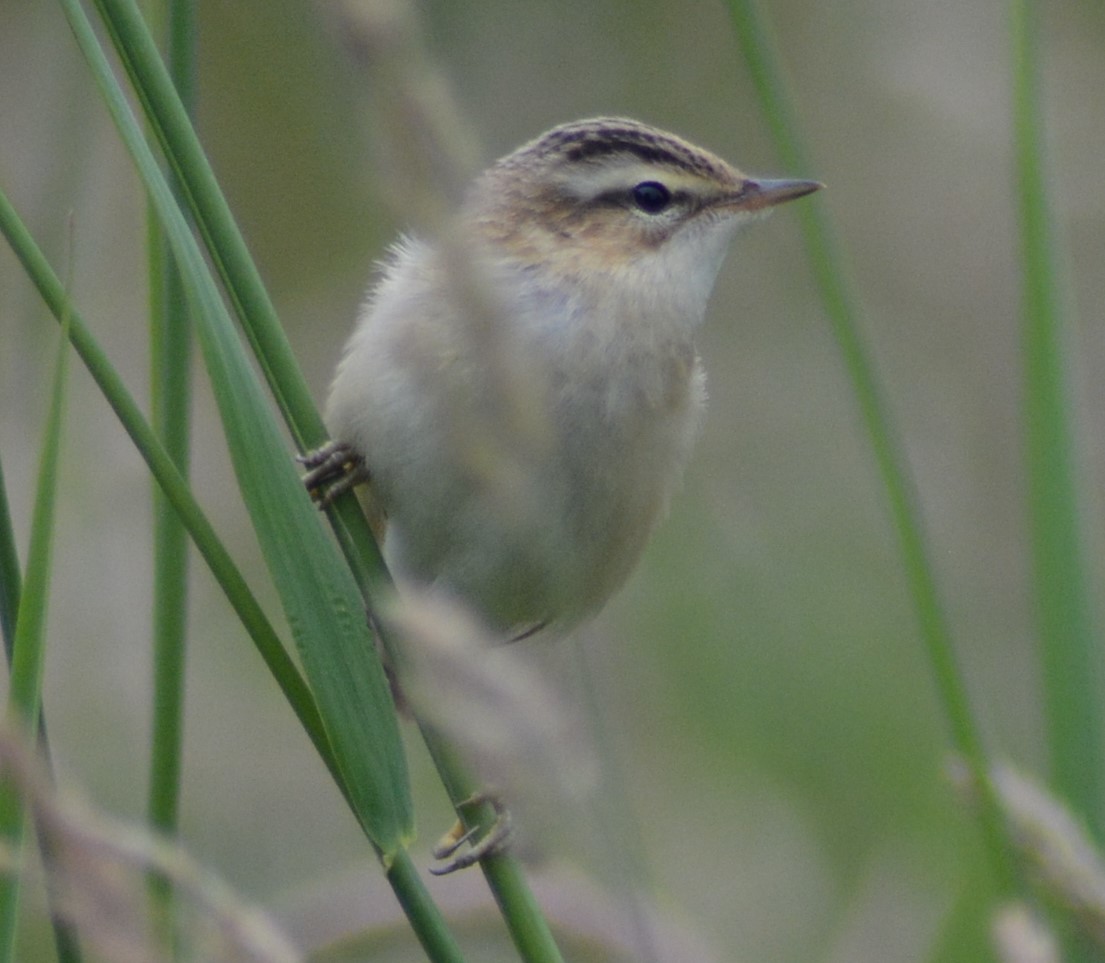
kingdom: Animalia
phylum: Chordata
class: Aves
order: Passeriformes
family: Acrocephalidae
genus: Acrocephalus
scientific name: Acrocephalus schoenobaenus
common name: Sedge warbler
